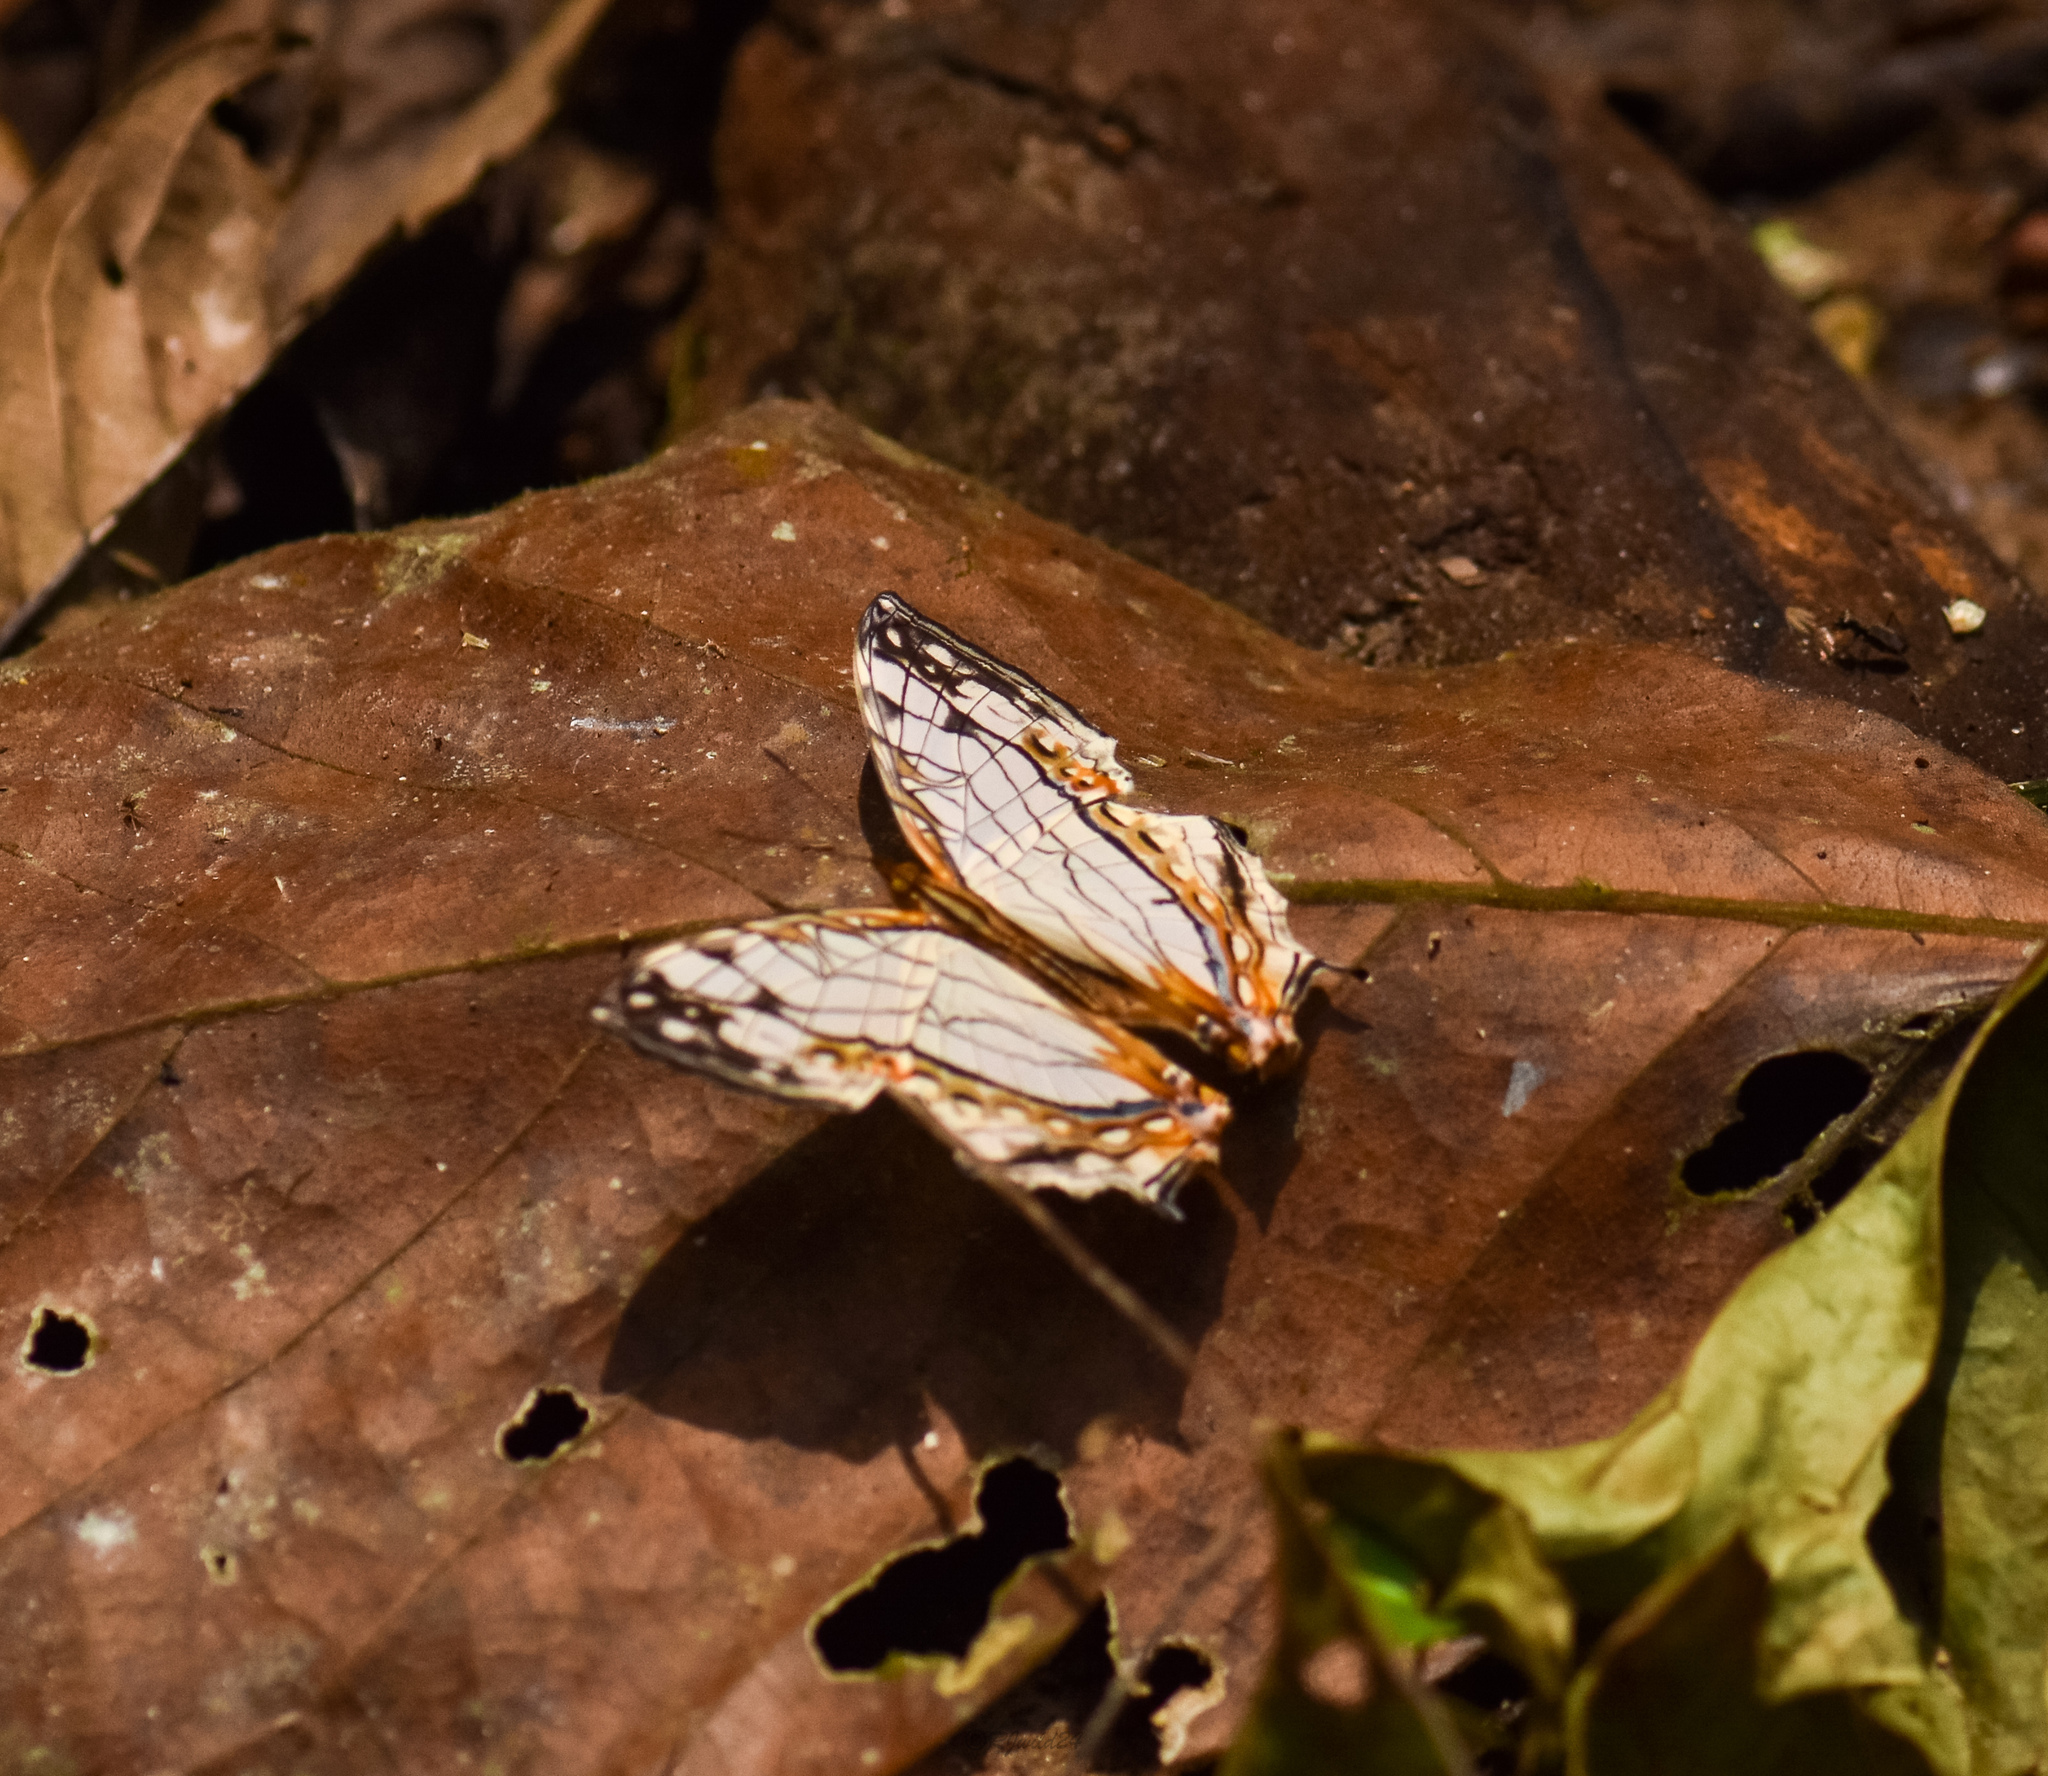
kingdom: Animalia
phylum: Arthropoda
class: Insecta
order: Lepidoptera
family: Nymphalidae
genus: Cyrestis
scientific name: Cyrestis thyodamas
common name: Common mapwing
